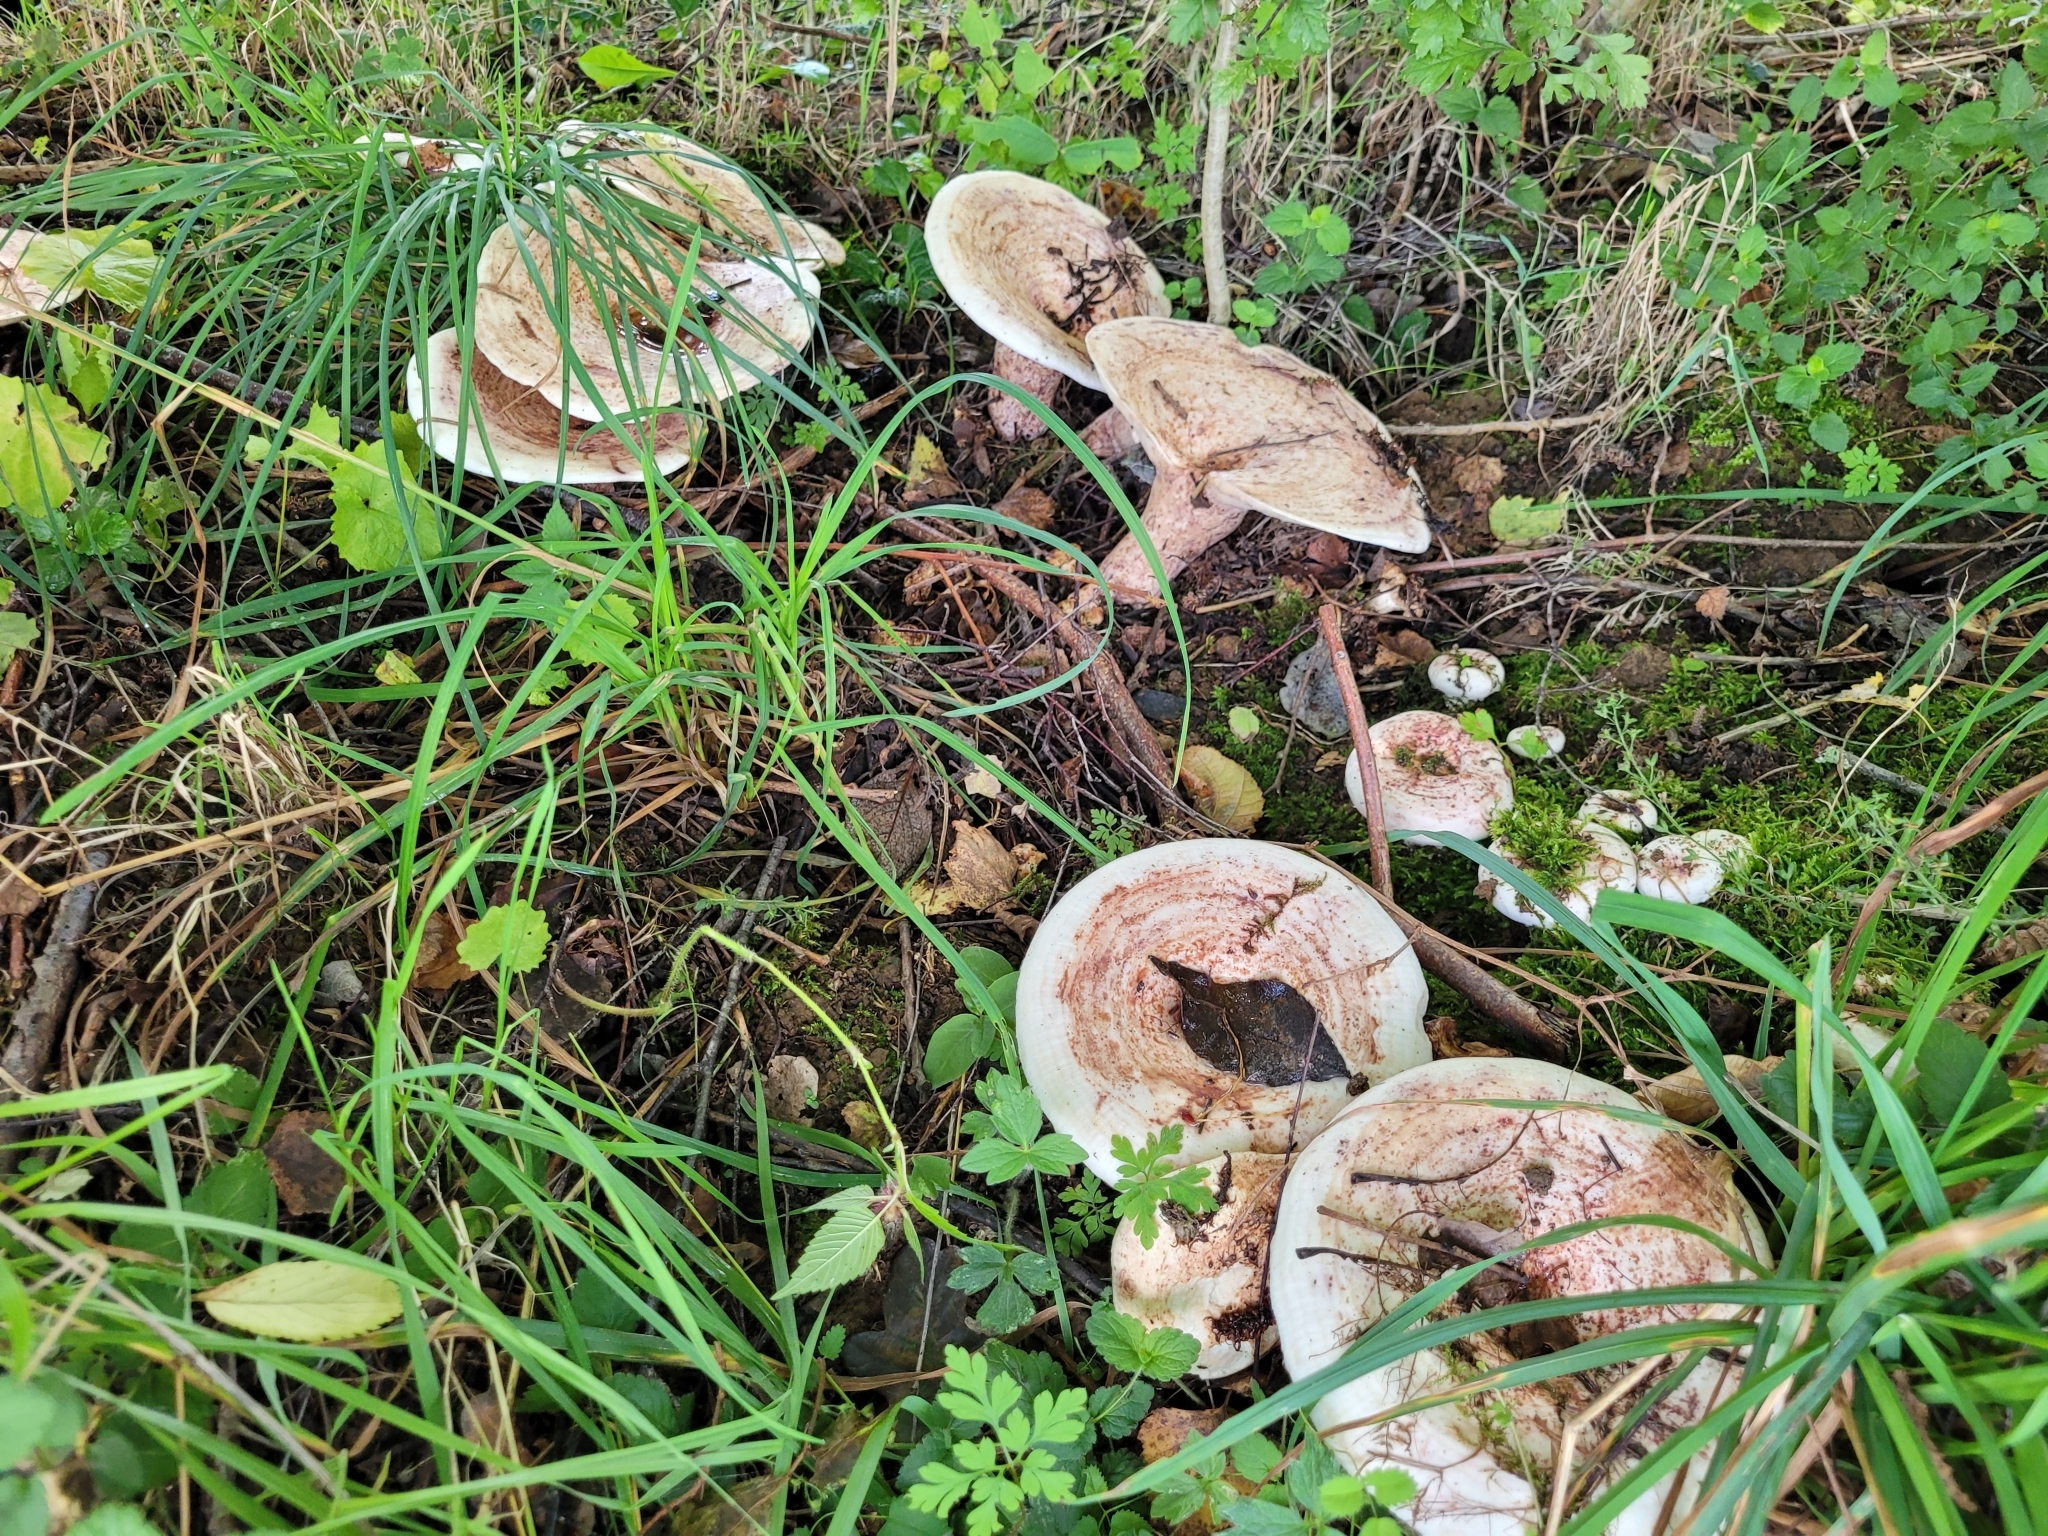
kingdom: Fungi
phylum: Basidiomycota
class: Agaricomycetes
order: Russulales
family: Russulaceae
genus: Lactarius
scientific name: Lactarius controversus
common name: Blushing milkcap
